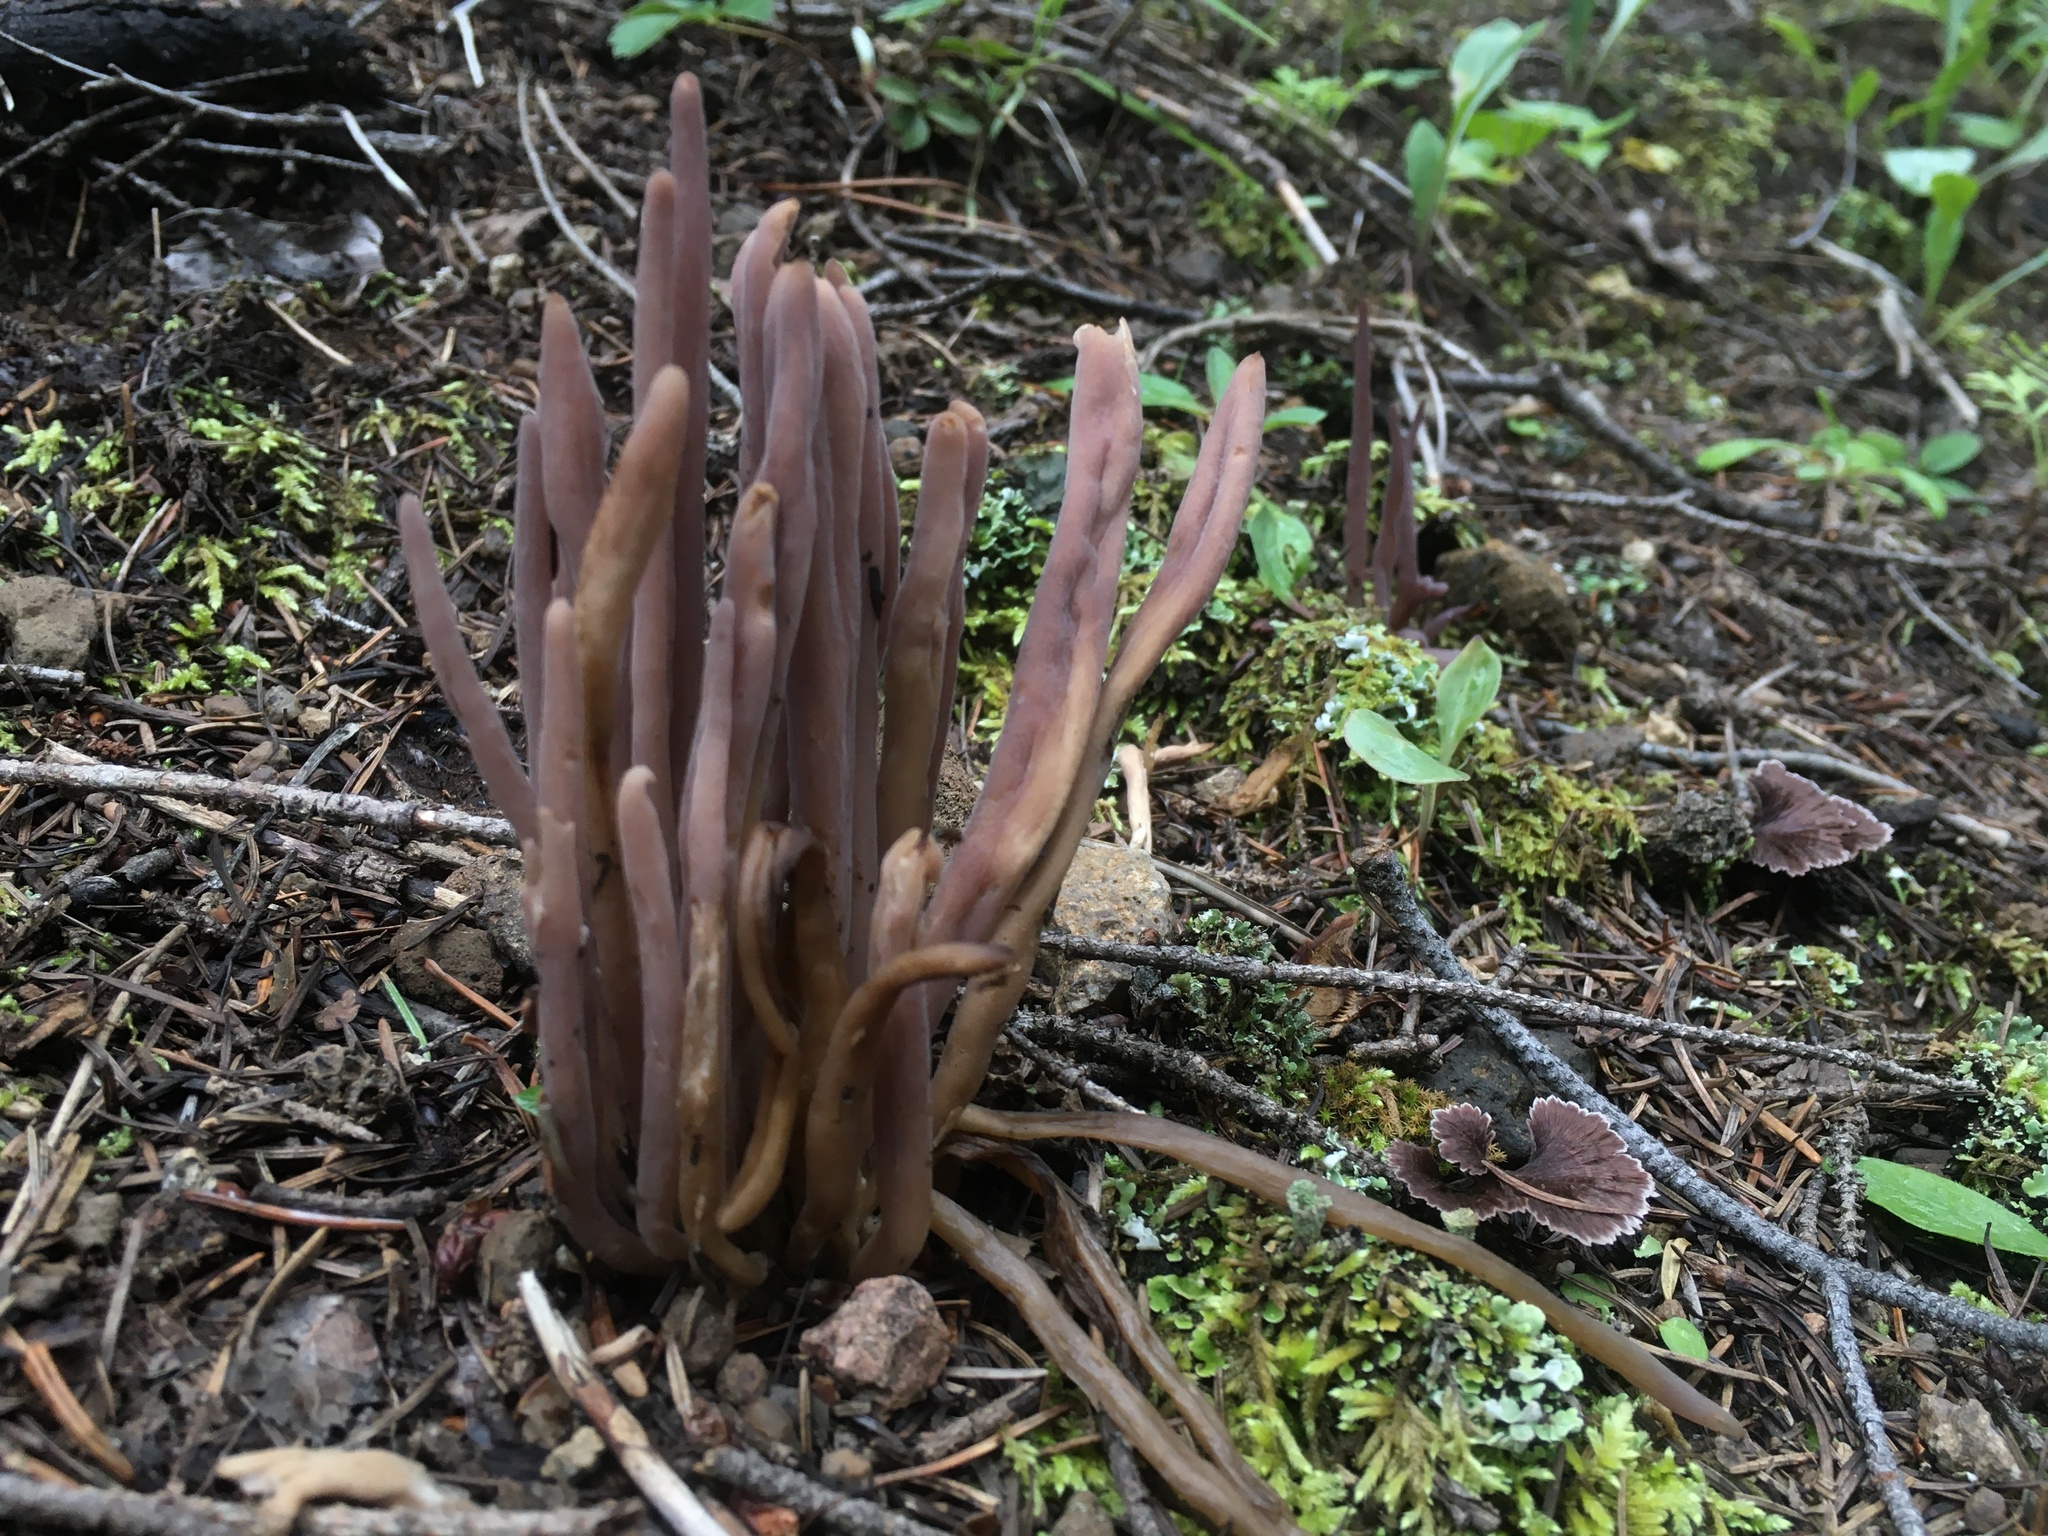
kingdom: Fungi
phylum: Basidiomycota
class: Agaricomycetes
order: Hymenochaetales
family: Rickenellaceae
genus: Alloclavaria
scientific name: Alloclavaria purpurea
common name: Purple spindles
